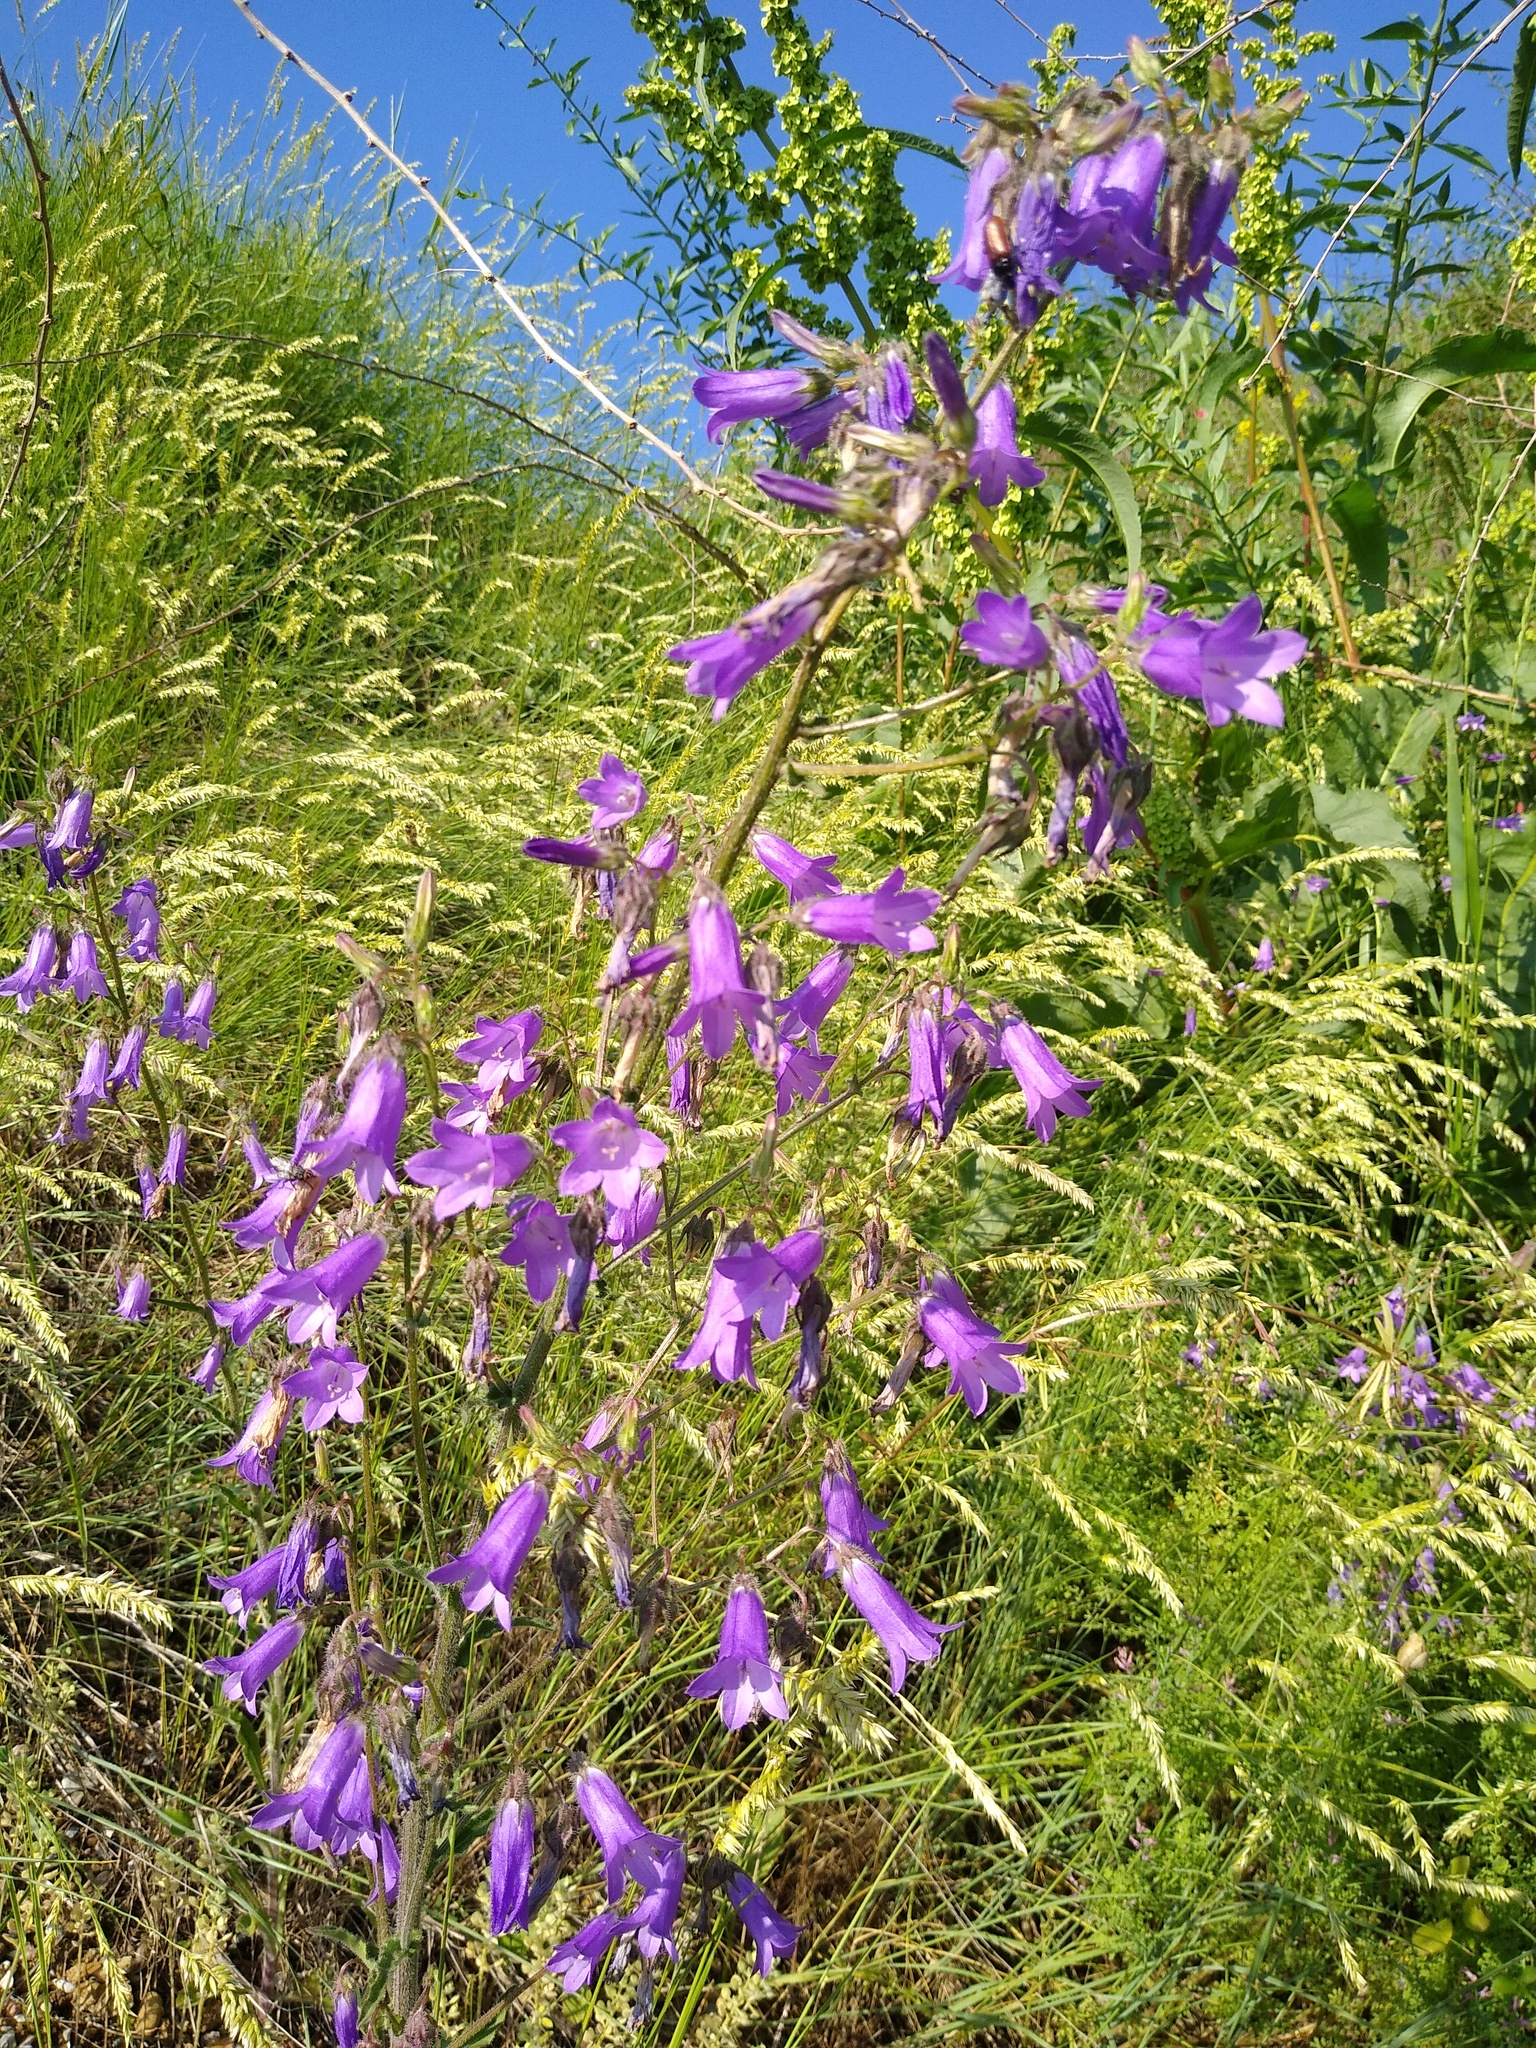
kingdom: Plantae
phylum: Tracheophyta
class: Magnoliopsida
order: Asterales
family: Campanulaceae
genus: Campanula
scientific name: Campanula sibirica
